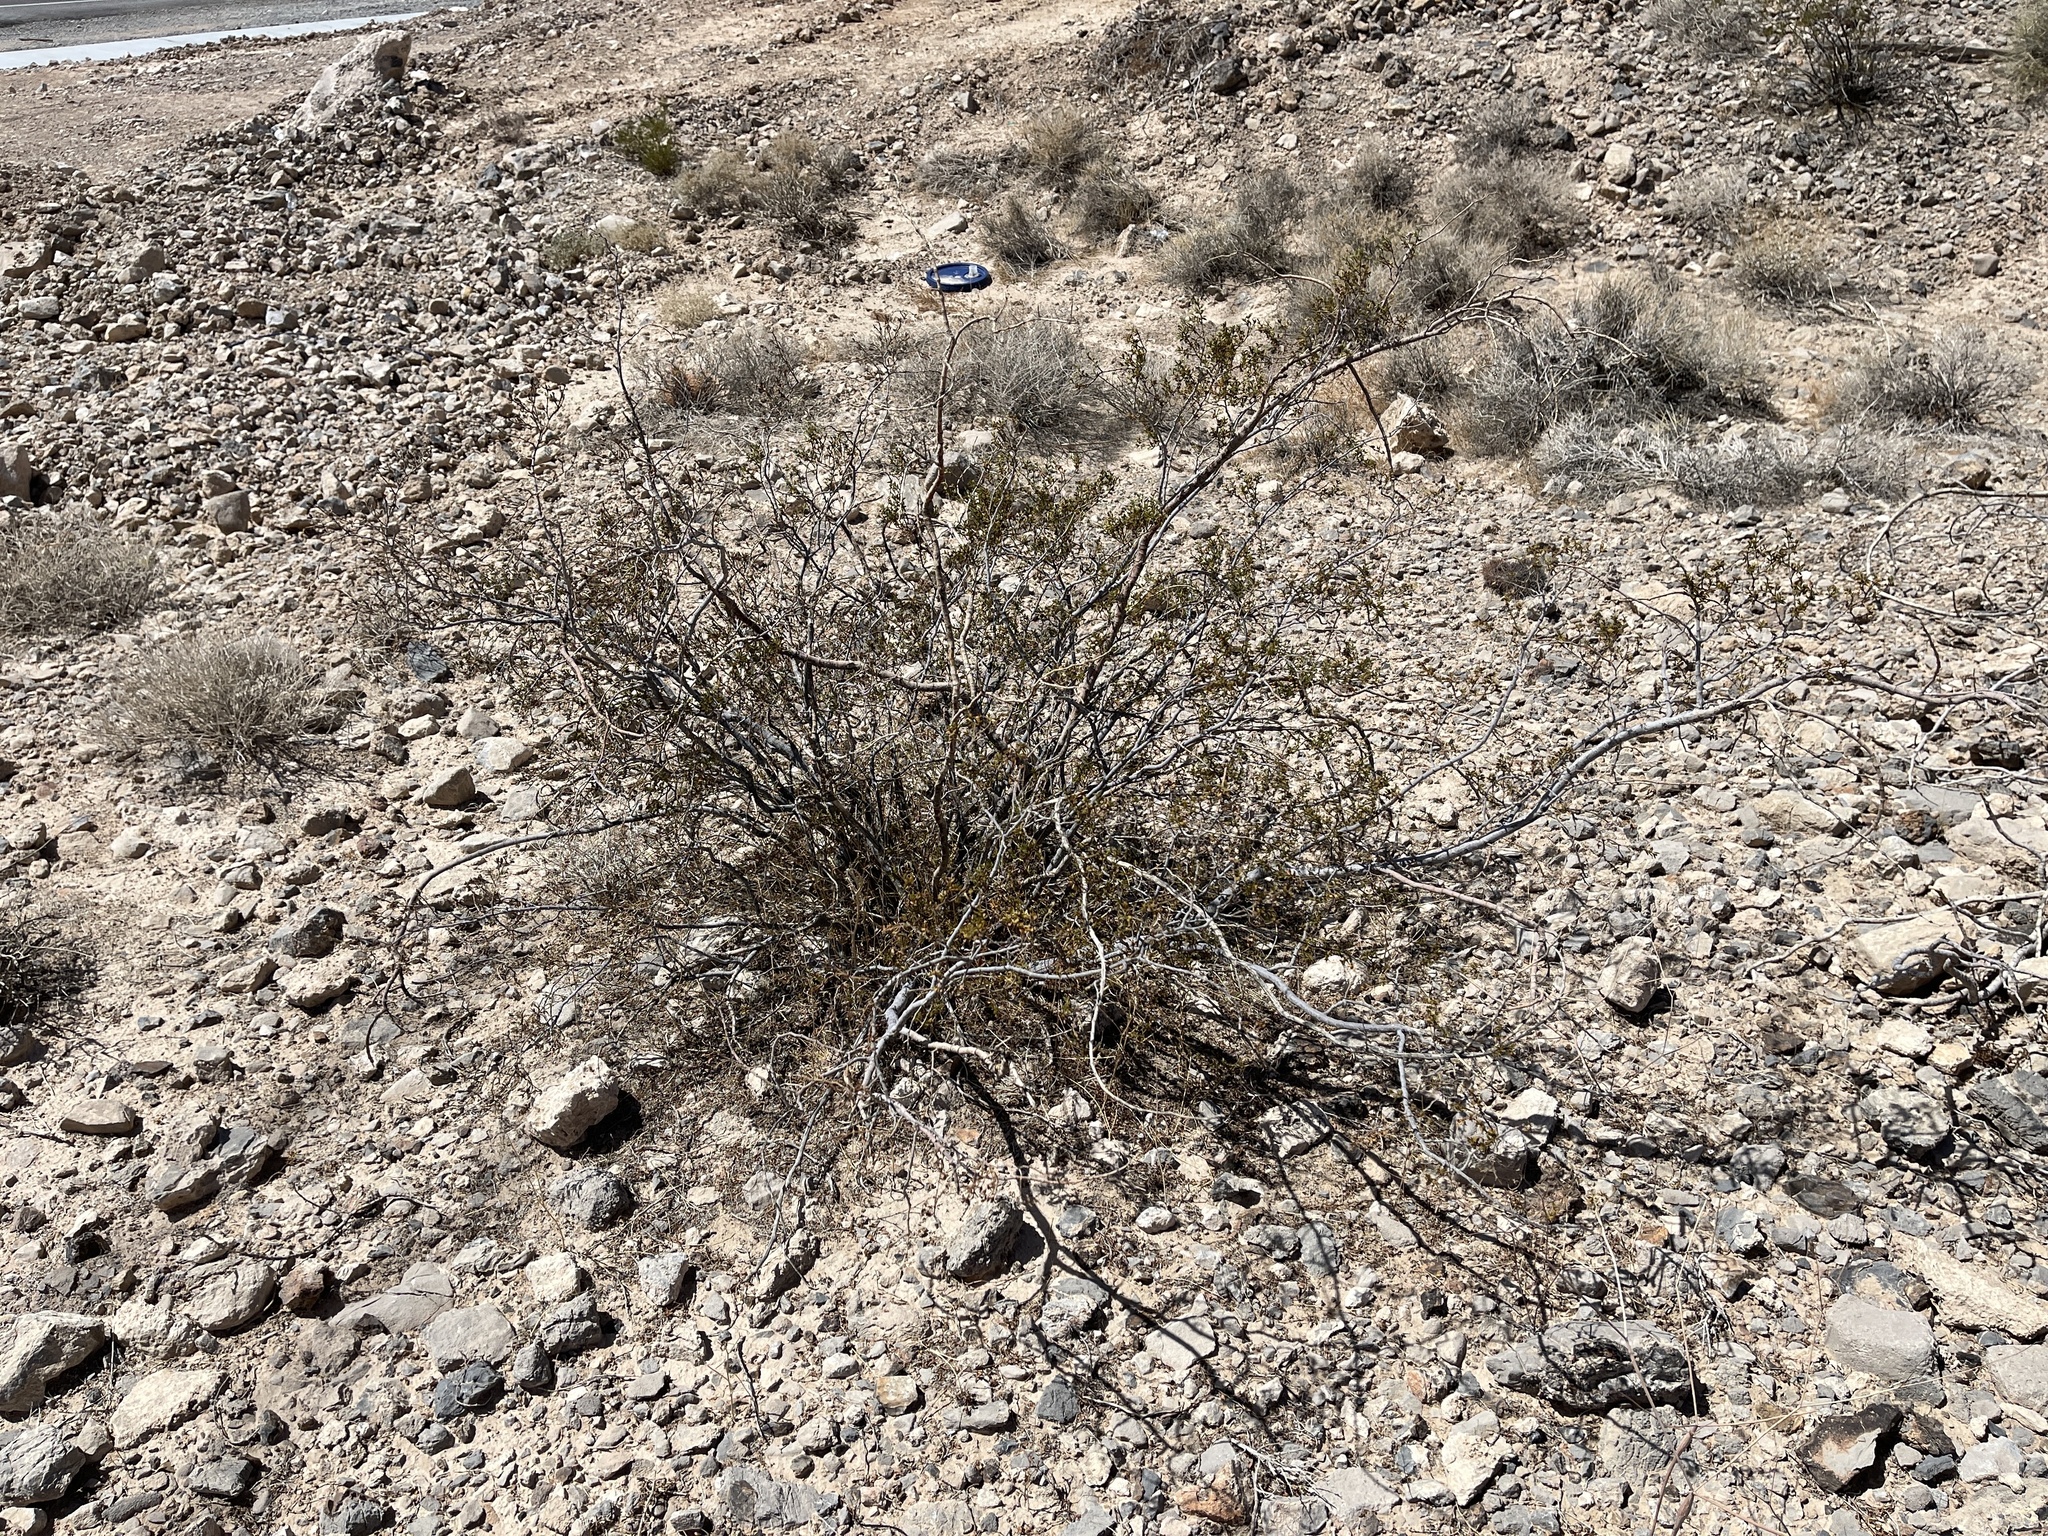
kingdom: Plantae
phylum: Tracheophyta
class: Magnoliopsida
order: Zygophyllales
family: Zygophyllaceae
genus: Larrea
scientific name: Larrea tridentata
